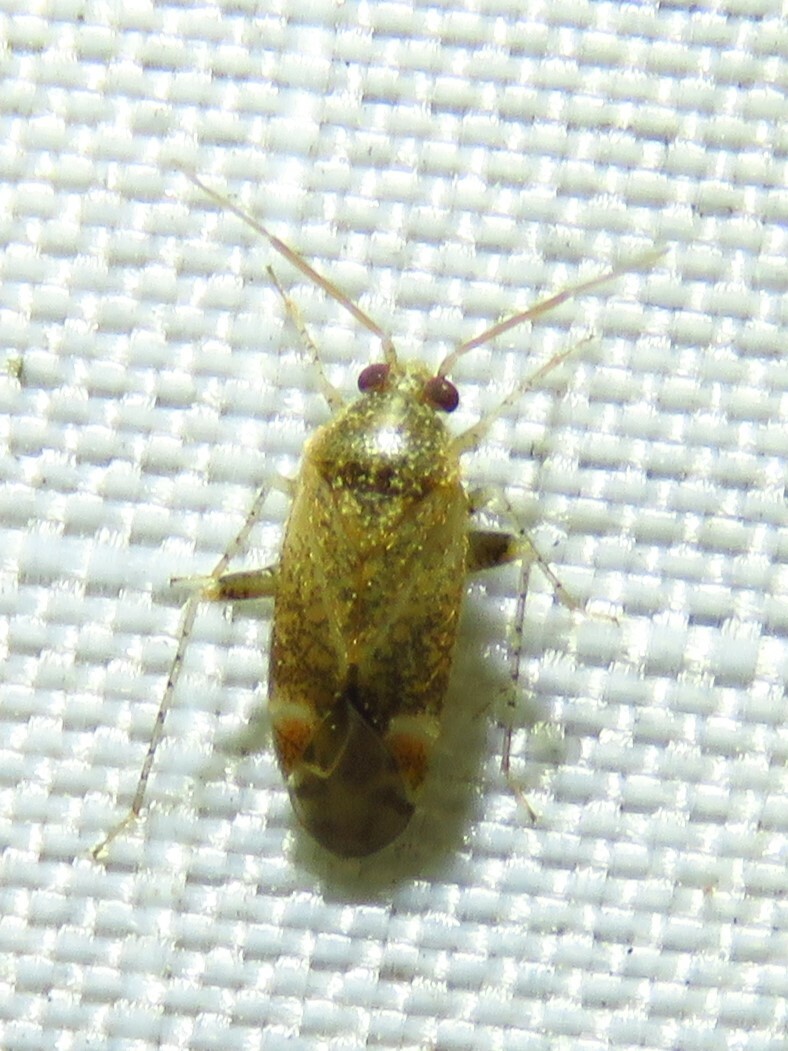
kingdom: Animalia
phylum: Arthropoda
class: Insecta
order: Hemiptera
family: Miridae
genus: Hamatophylus
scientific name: Hamatophylus guttulosus
